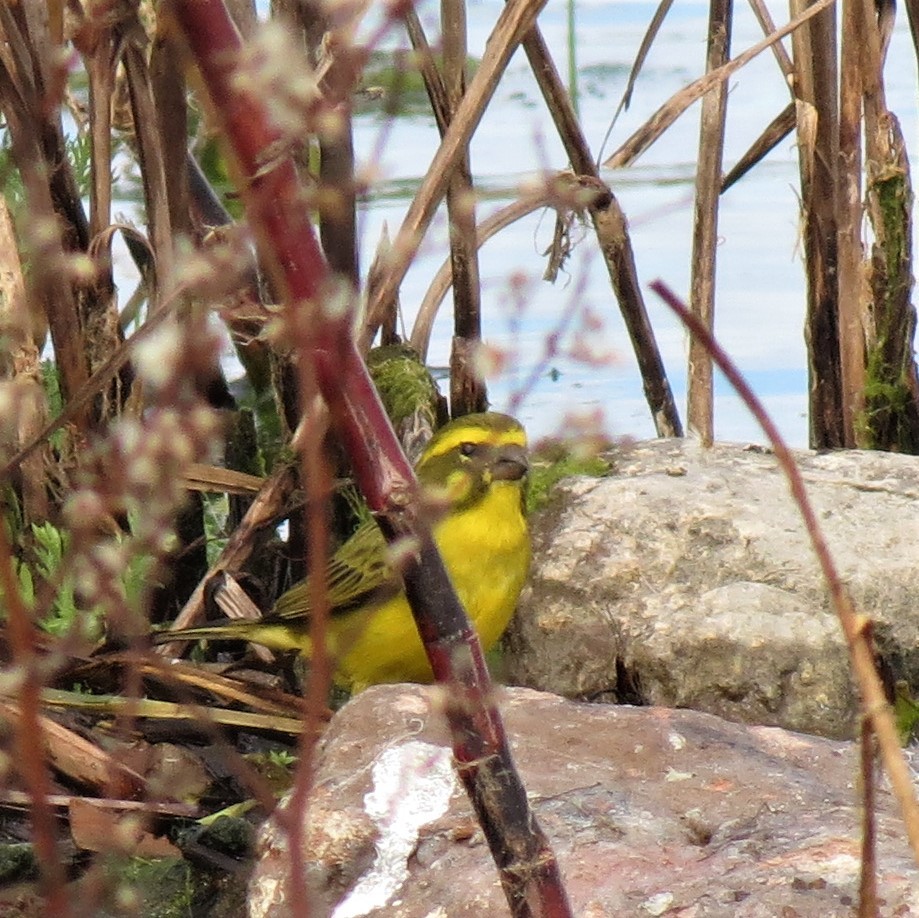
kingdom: Animalia
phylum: Chordata
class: Aves
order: Passeriformes
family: Fringillidae
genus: Crithagra
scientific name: Crithagra flaviventris
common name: Yellow canary
